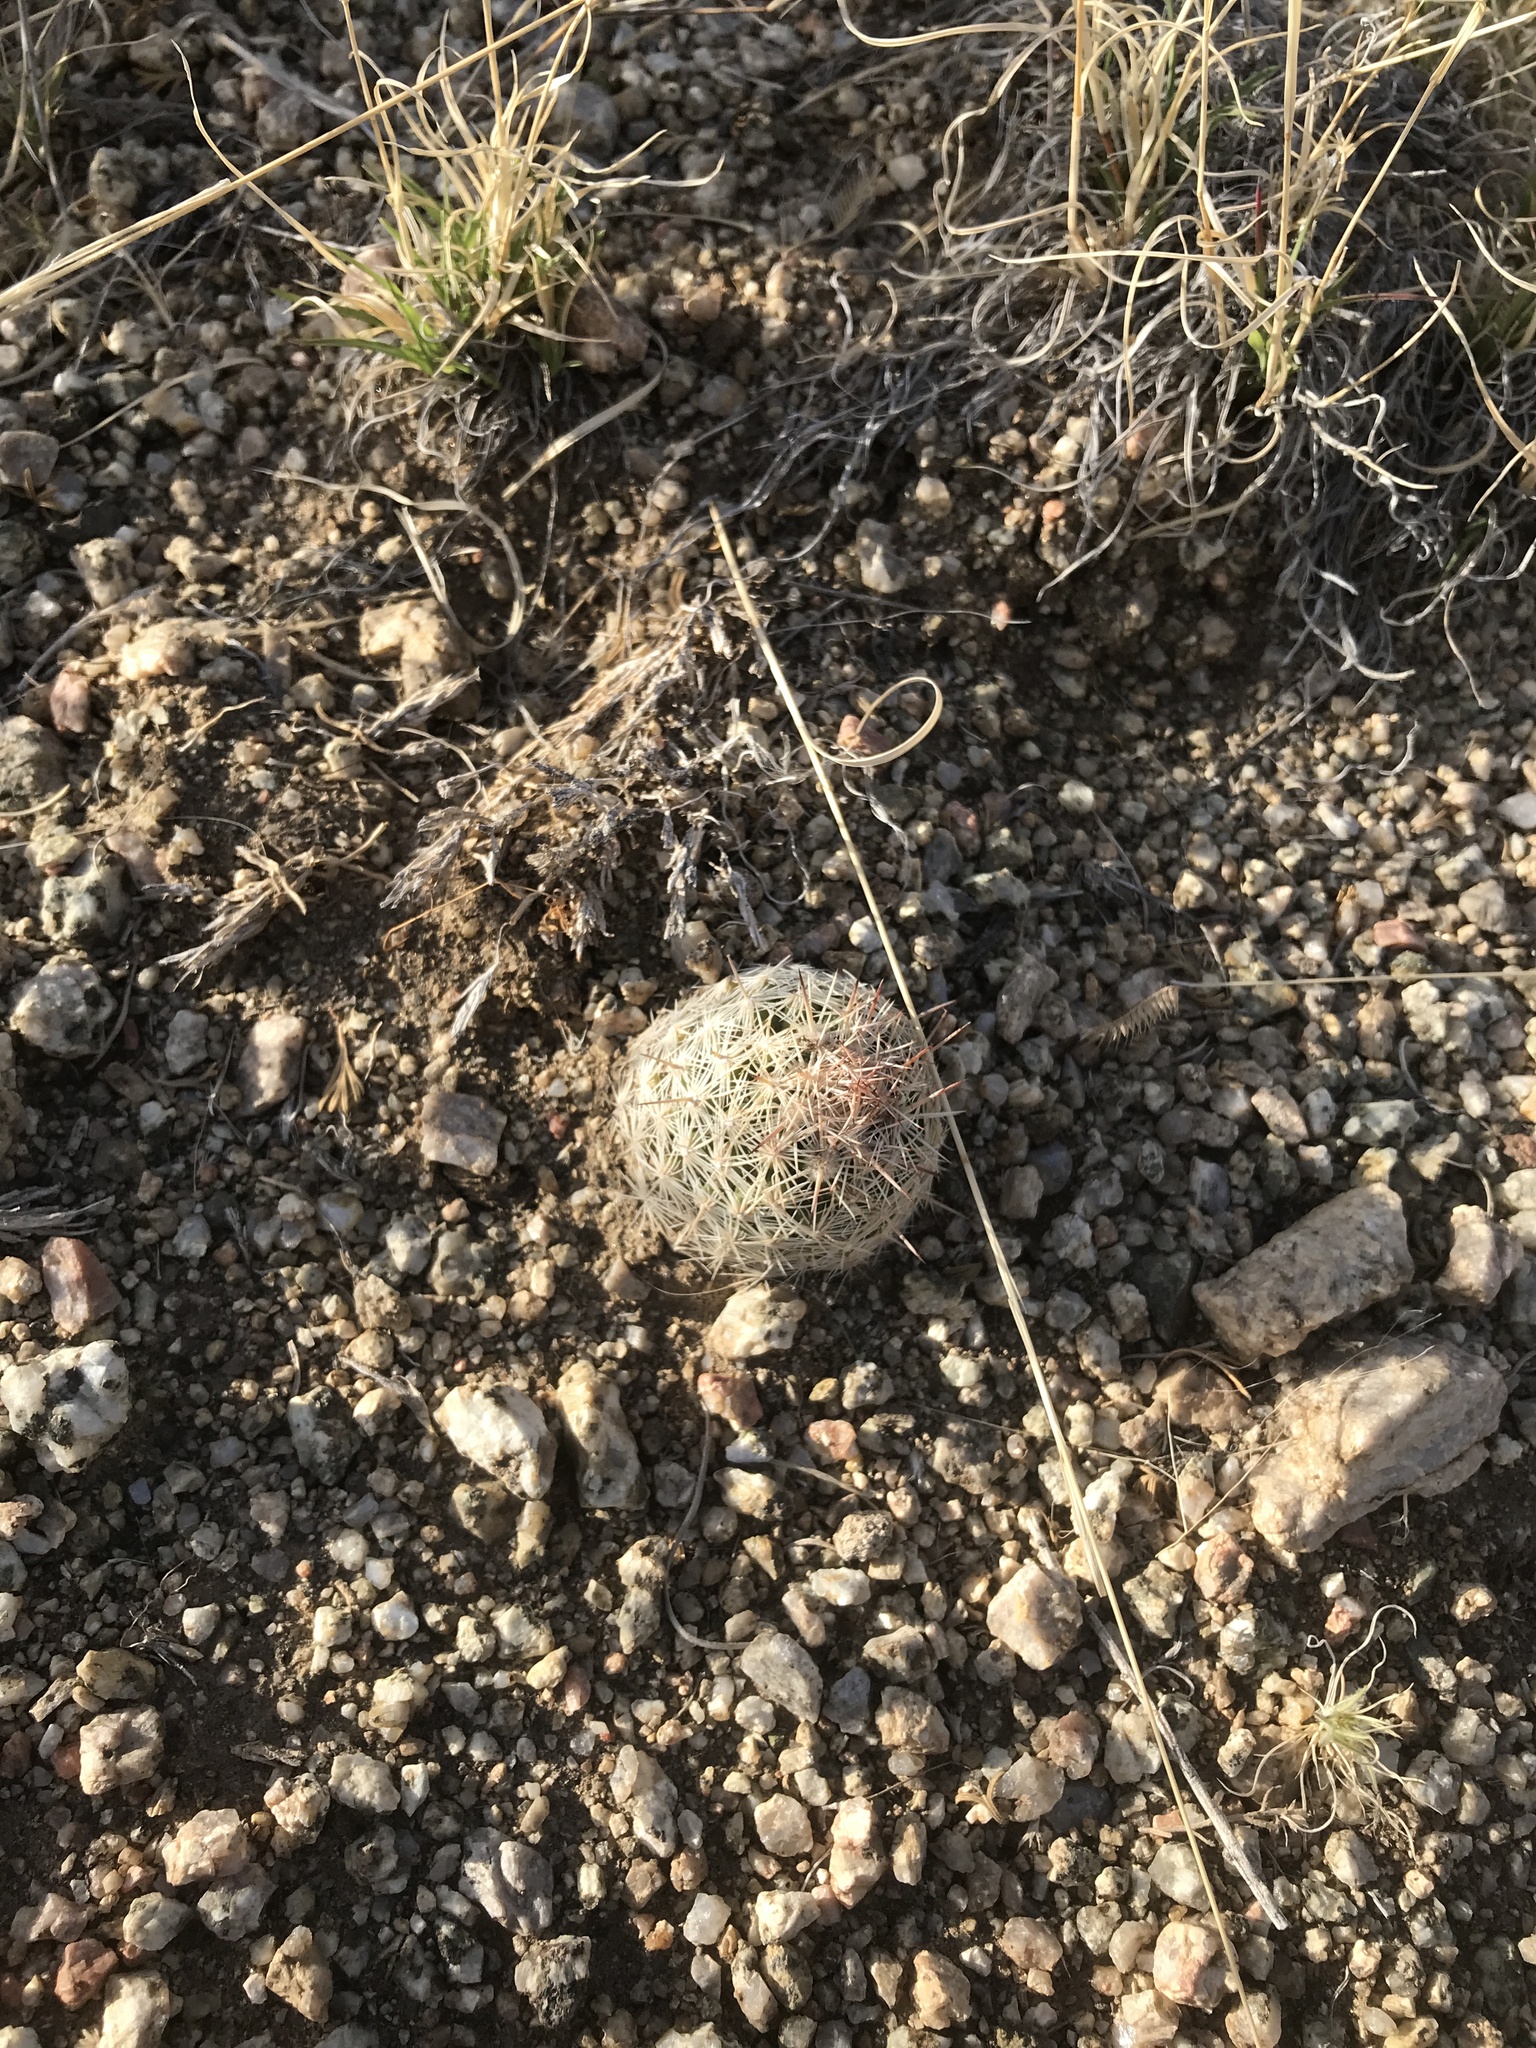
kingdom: Plantae
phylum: Tracheophyta
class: Magnoliopsida
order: Caryophyllales
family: Cactaceae
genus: Pelecyphora
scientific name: Pelecyphora vivipara
